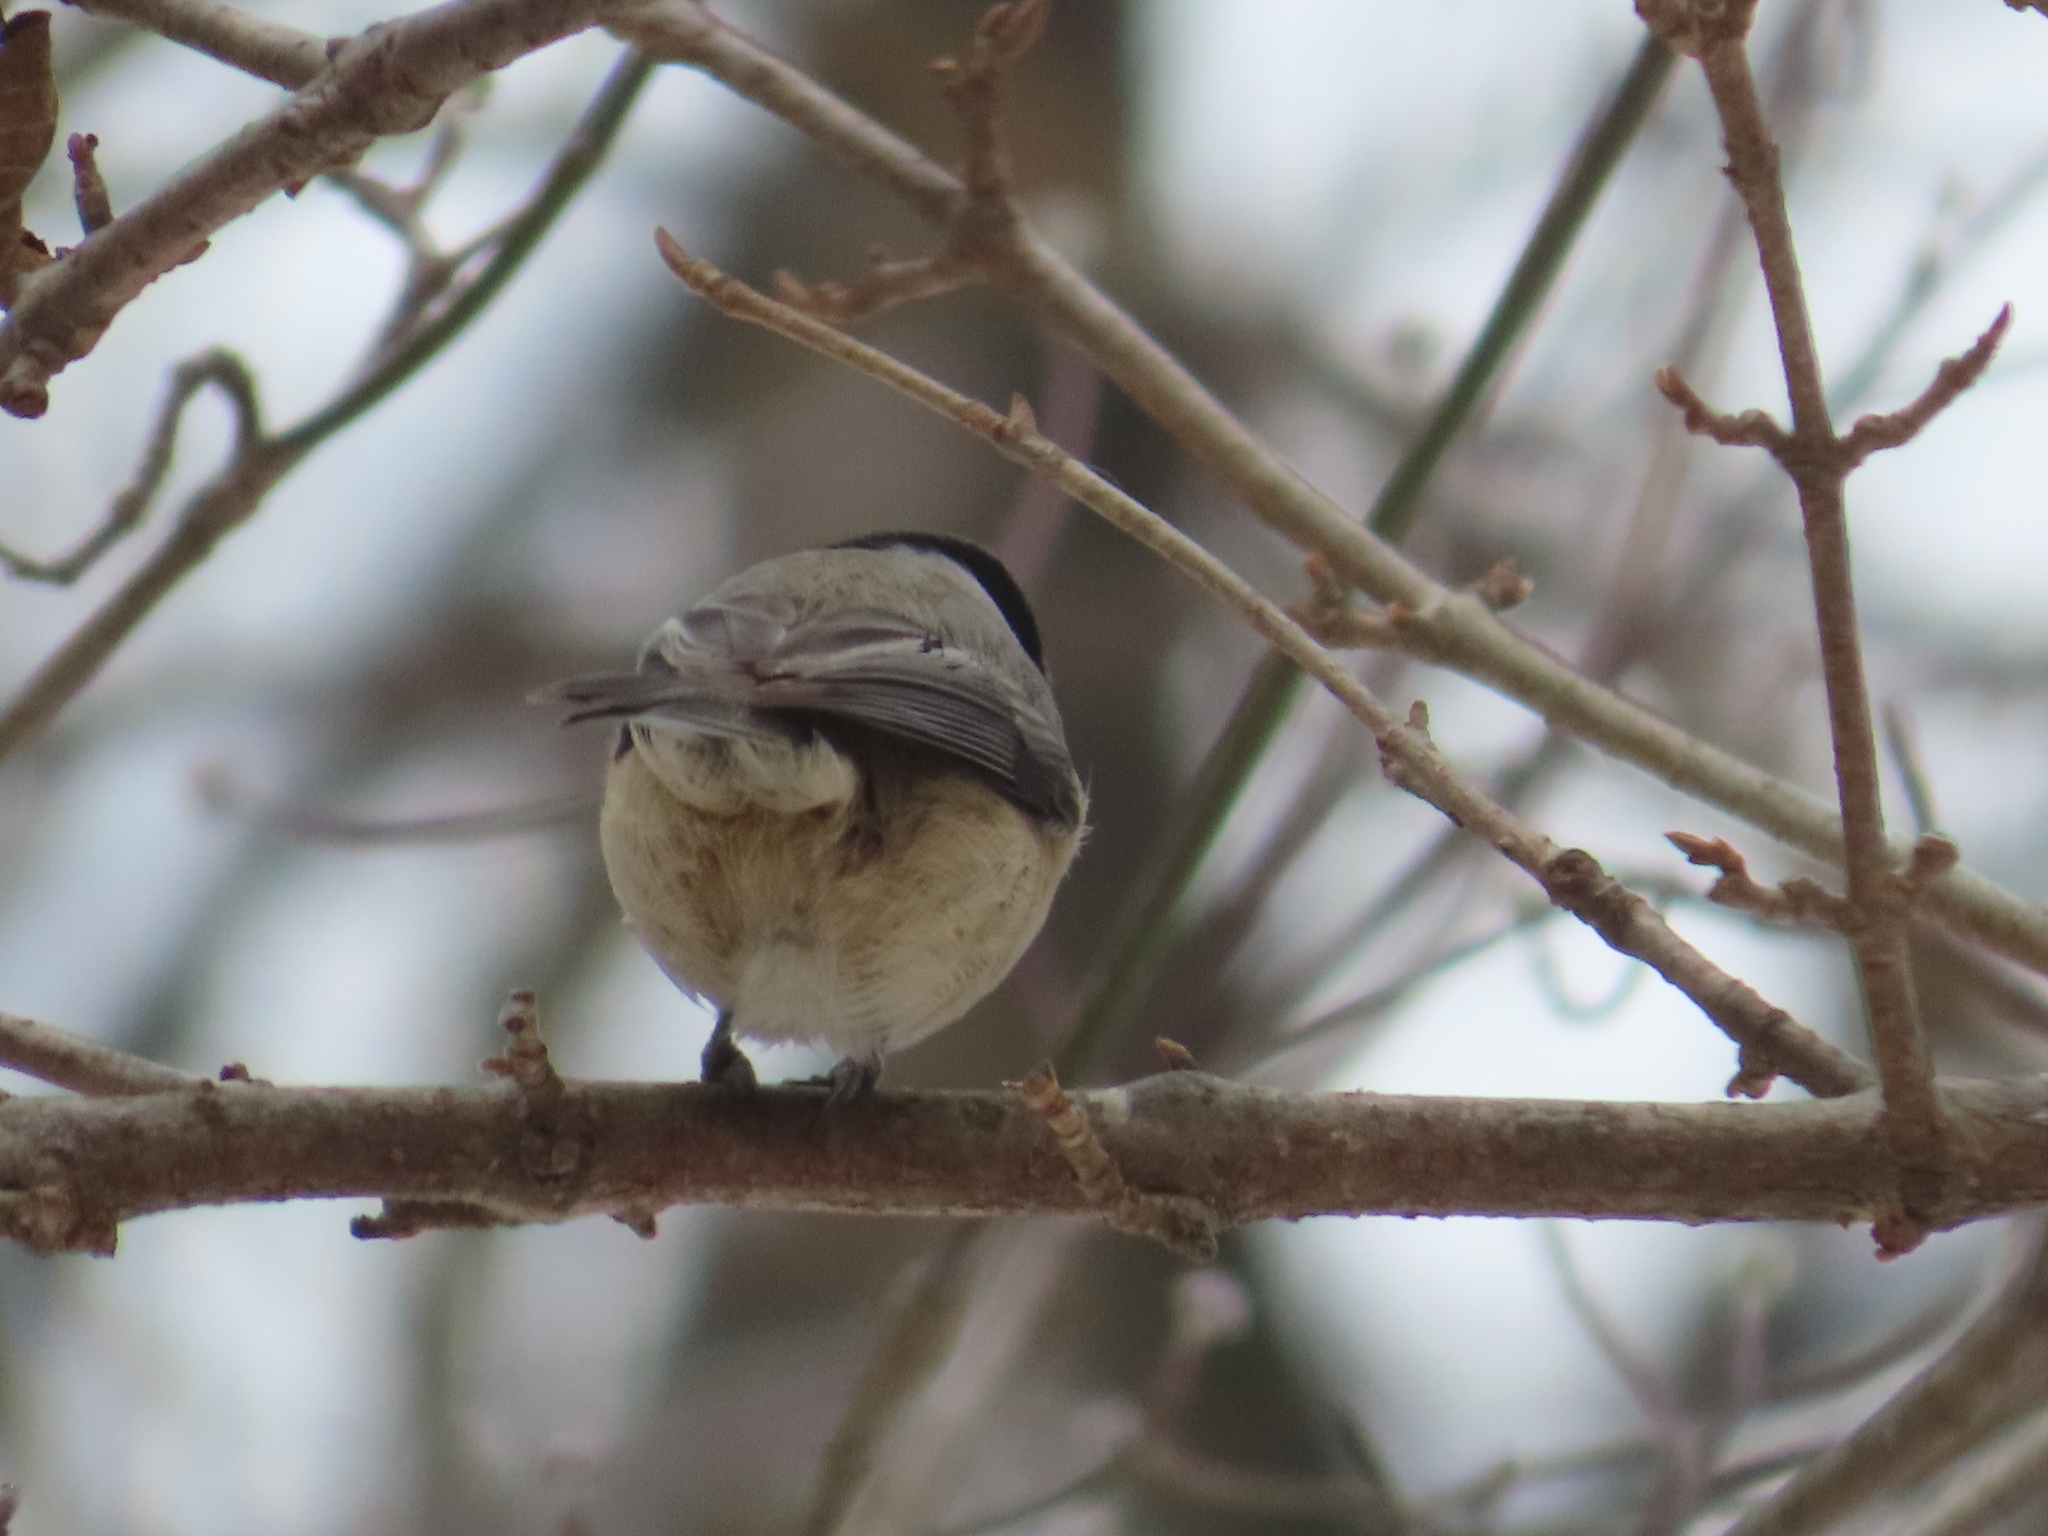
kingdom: Animalia
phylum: Chordata
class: Aves
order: Passeriformes
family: Paridae
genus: Poecile
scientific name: Poecile carolinensis
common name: Carolina chickadee
